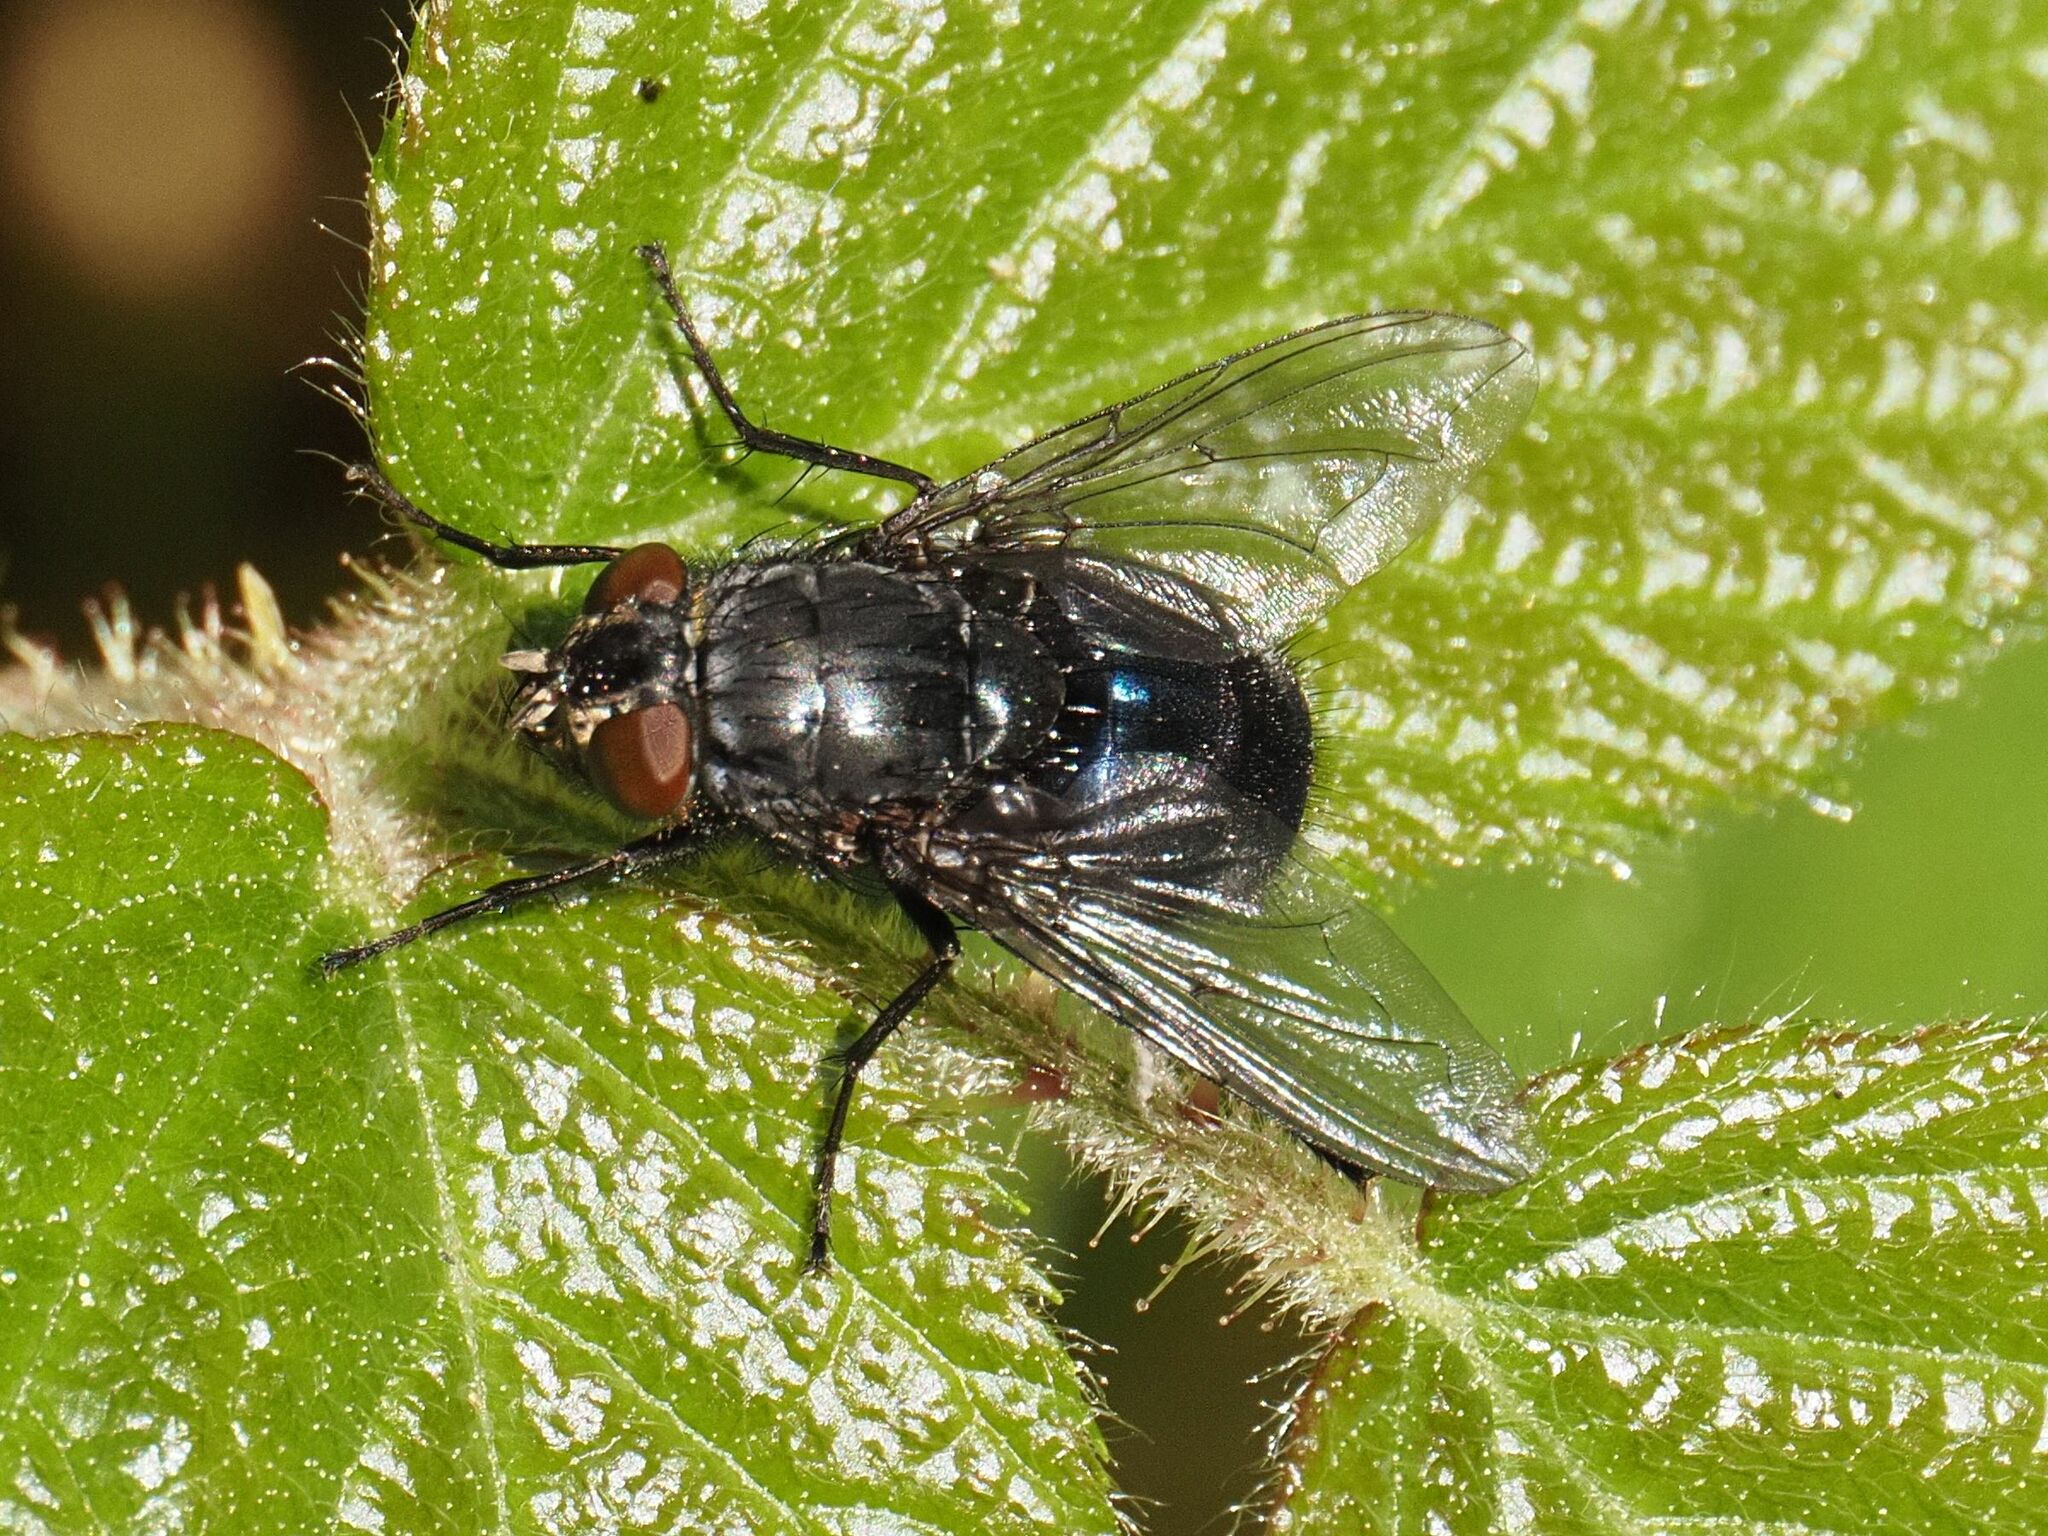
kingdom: Animalia
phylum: Arthropoda
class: Insecta
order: Diptera
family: Calliphoridae
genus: Calliphora
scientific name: Calliphora vomitoria
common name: Blue bottle fly
